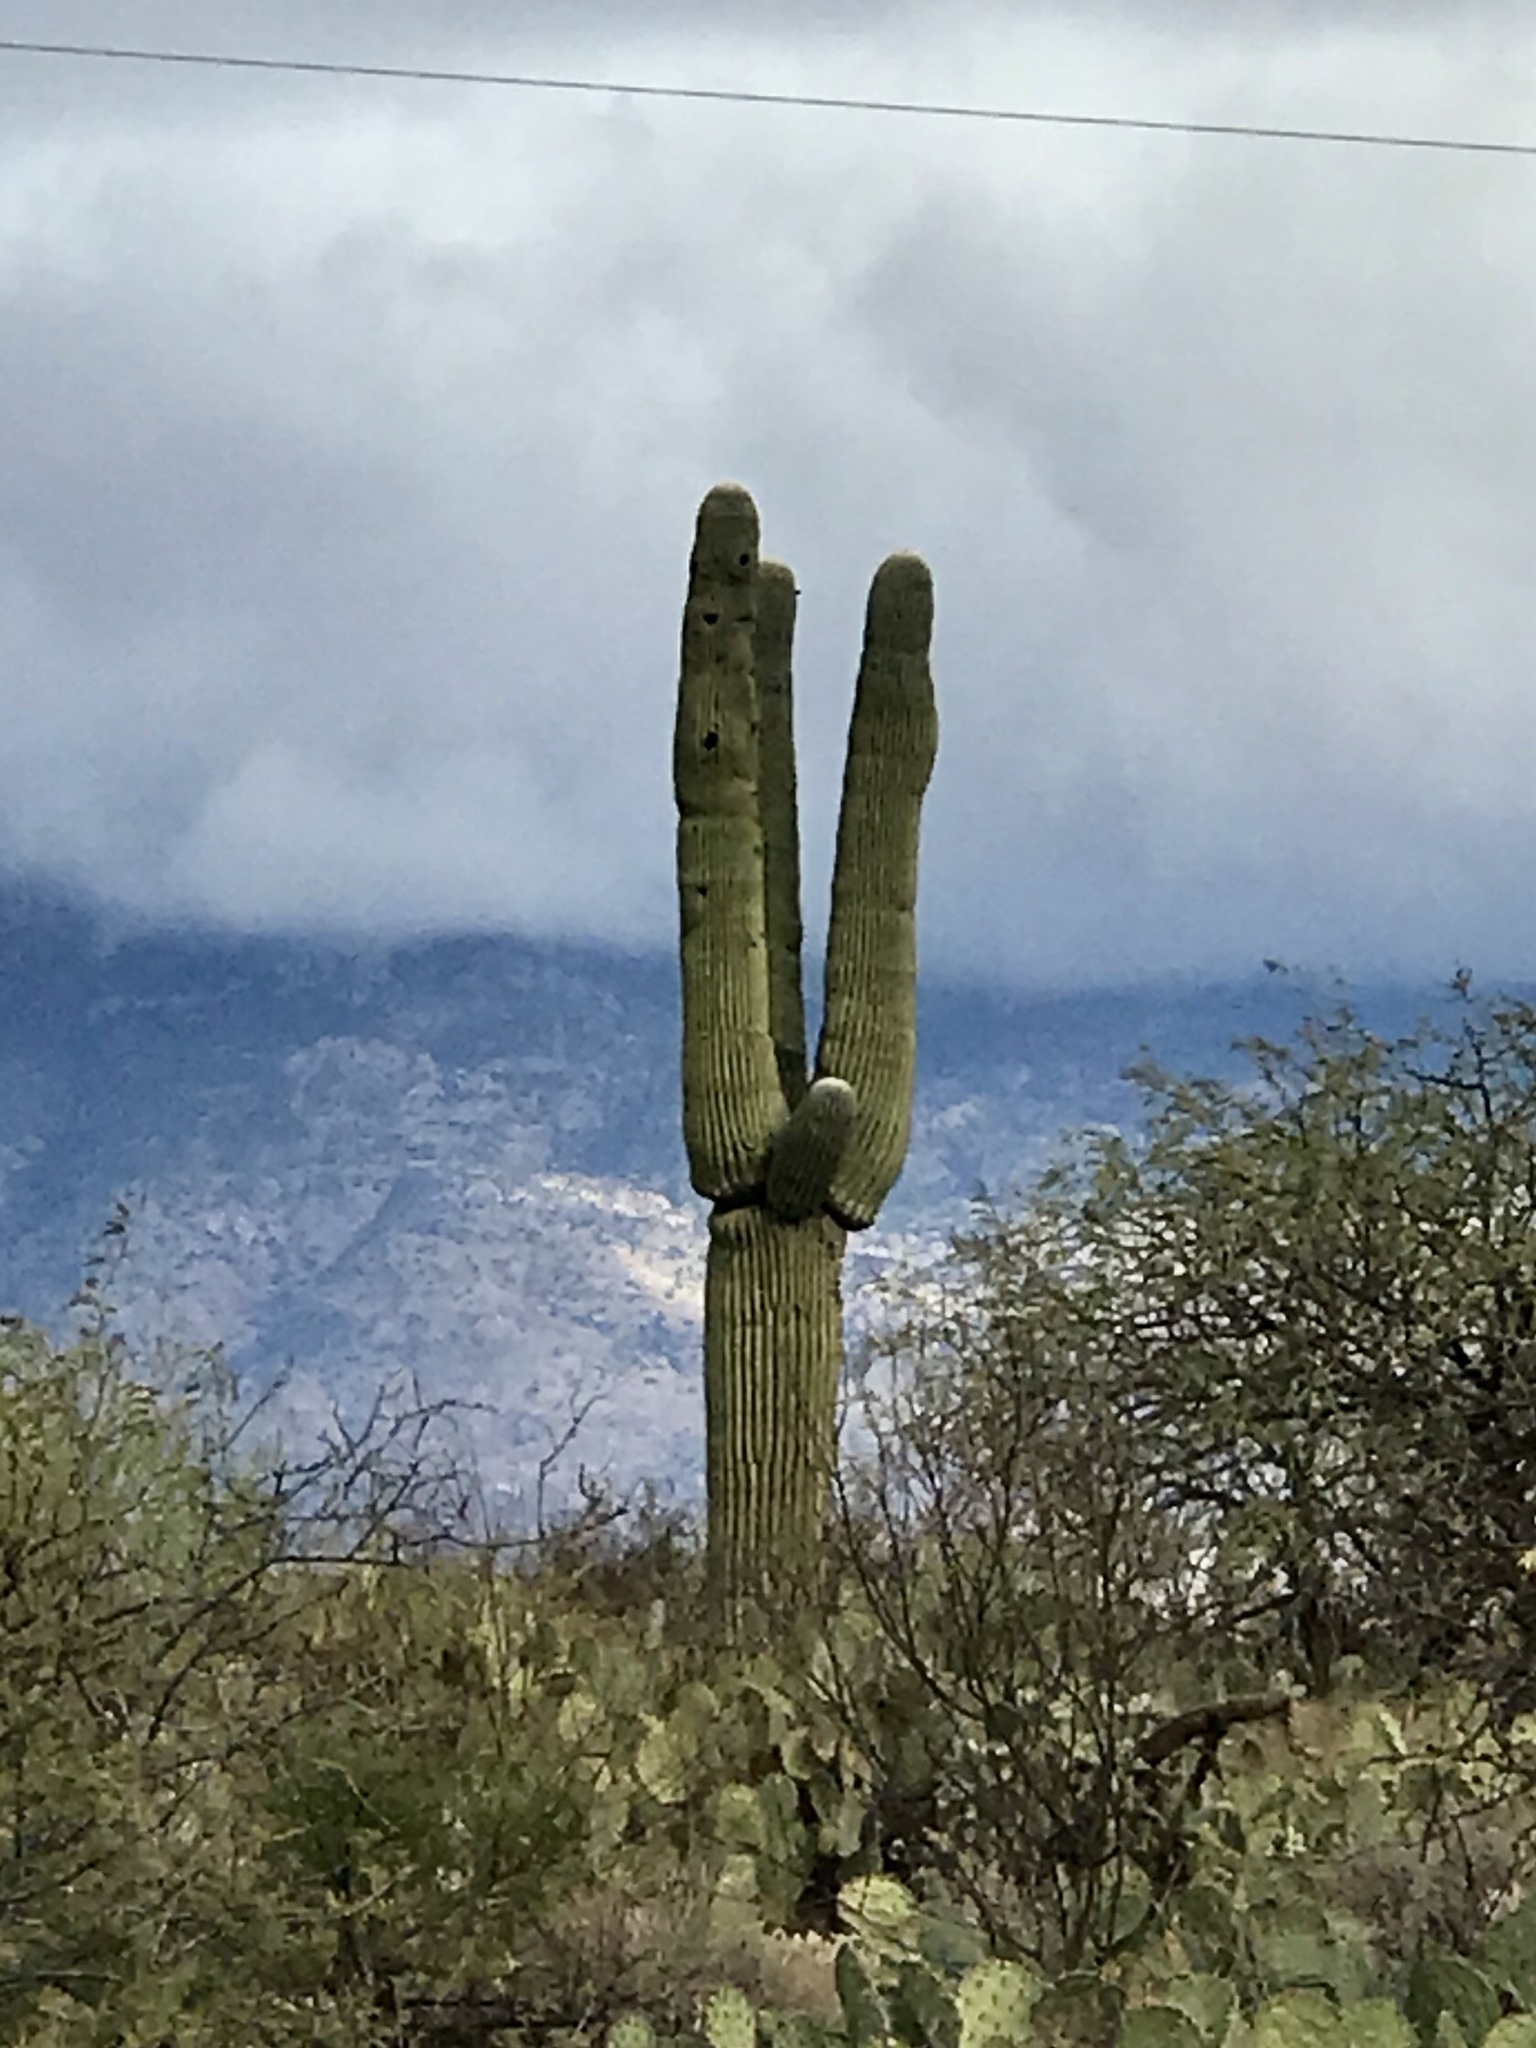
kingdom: Plantae
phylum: Tracheophyta
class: Magnoliopsida
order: Caryophyllales
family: Cactaceae
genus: Carnegiea
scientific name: Carnegiea gigantea
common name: Saguaro
